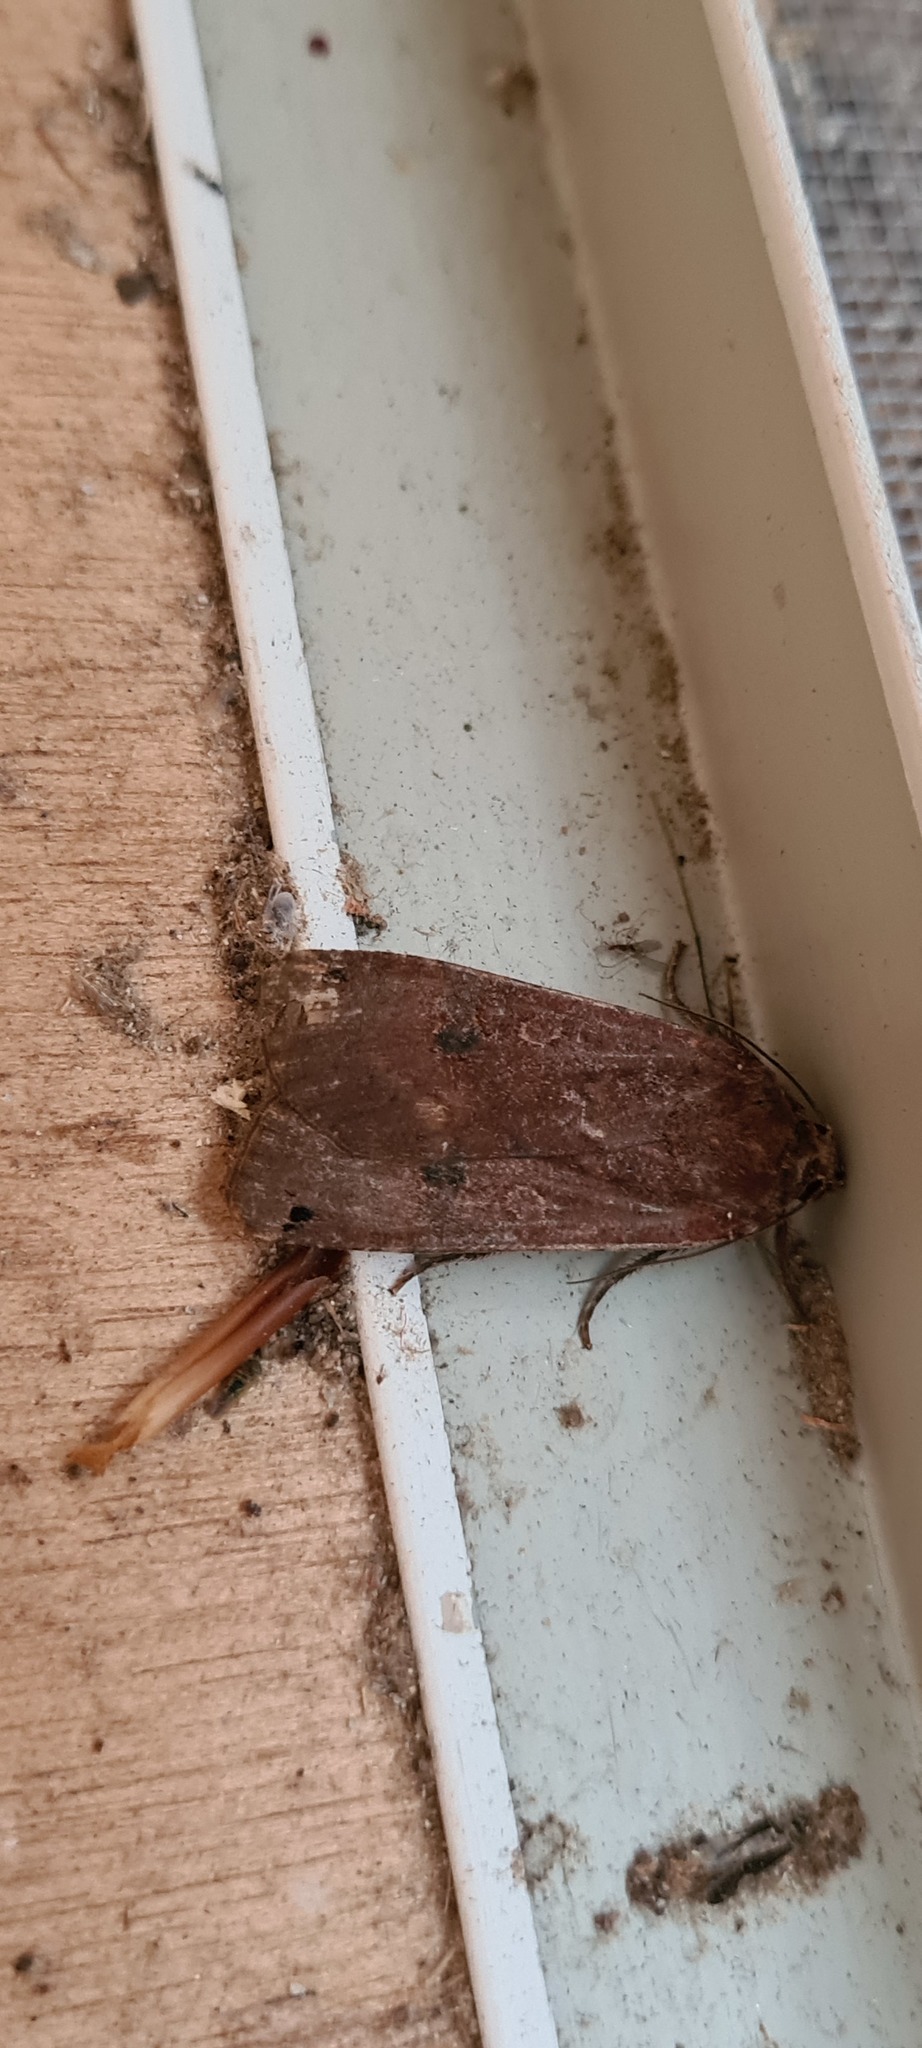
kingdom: Animalia
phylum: Arthropoda
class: Insecta
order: Lepidoptera
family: Noctuidae
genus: Noctua
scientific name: Noctua pronuba
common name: Large yellow underwing
